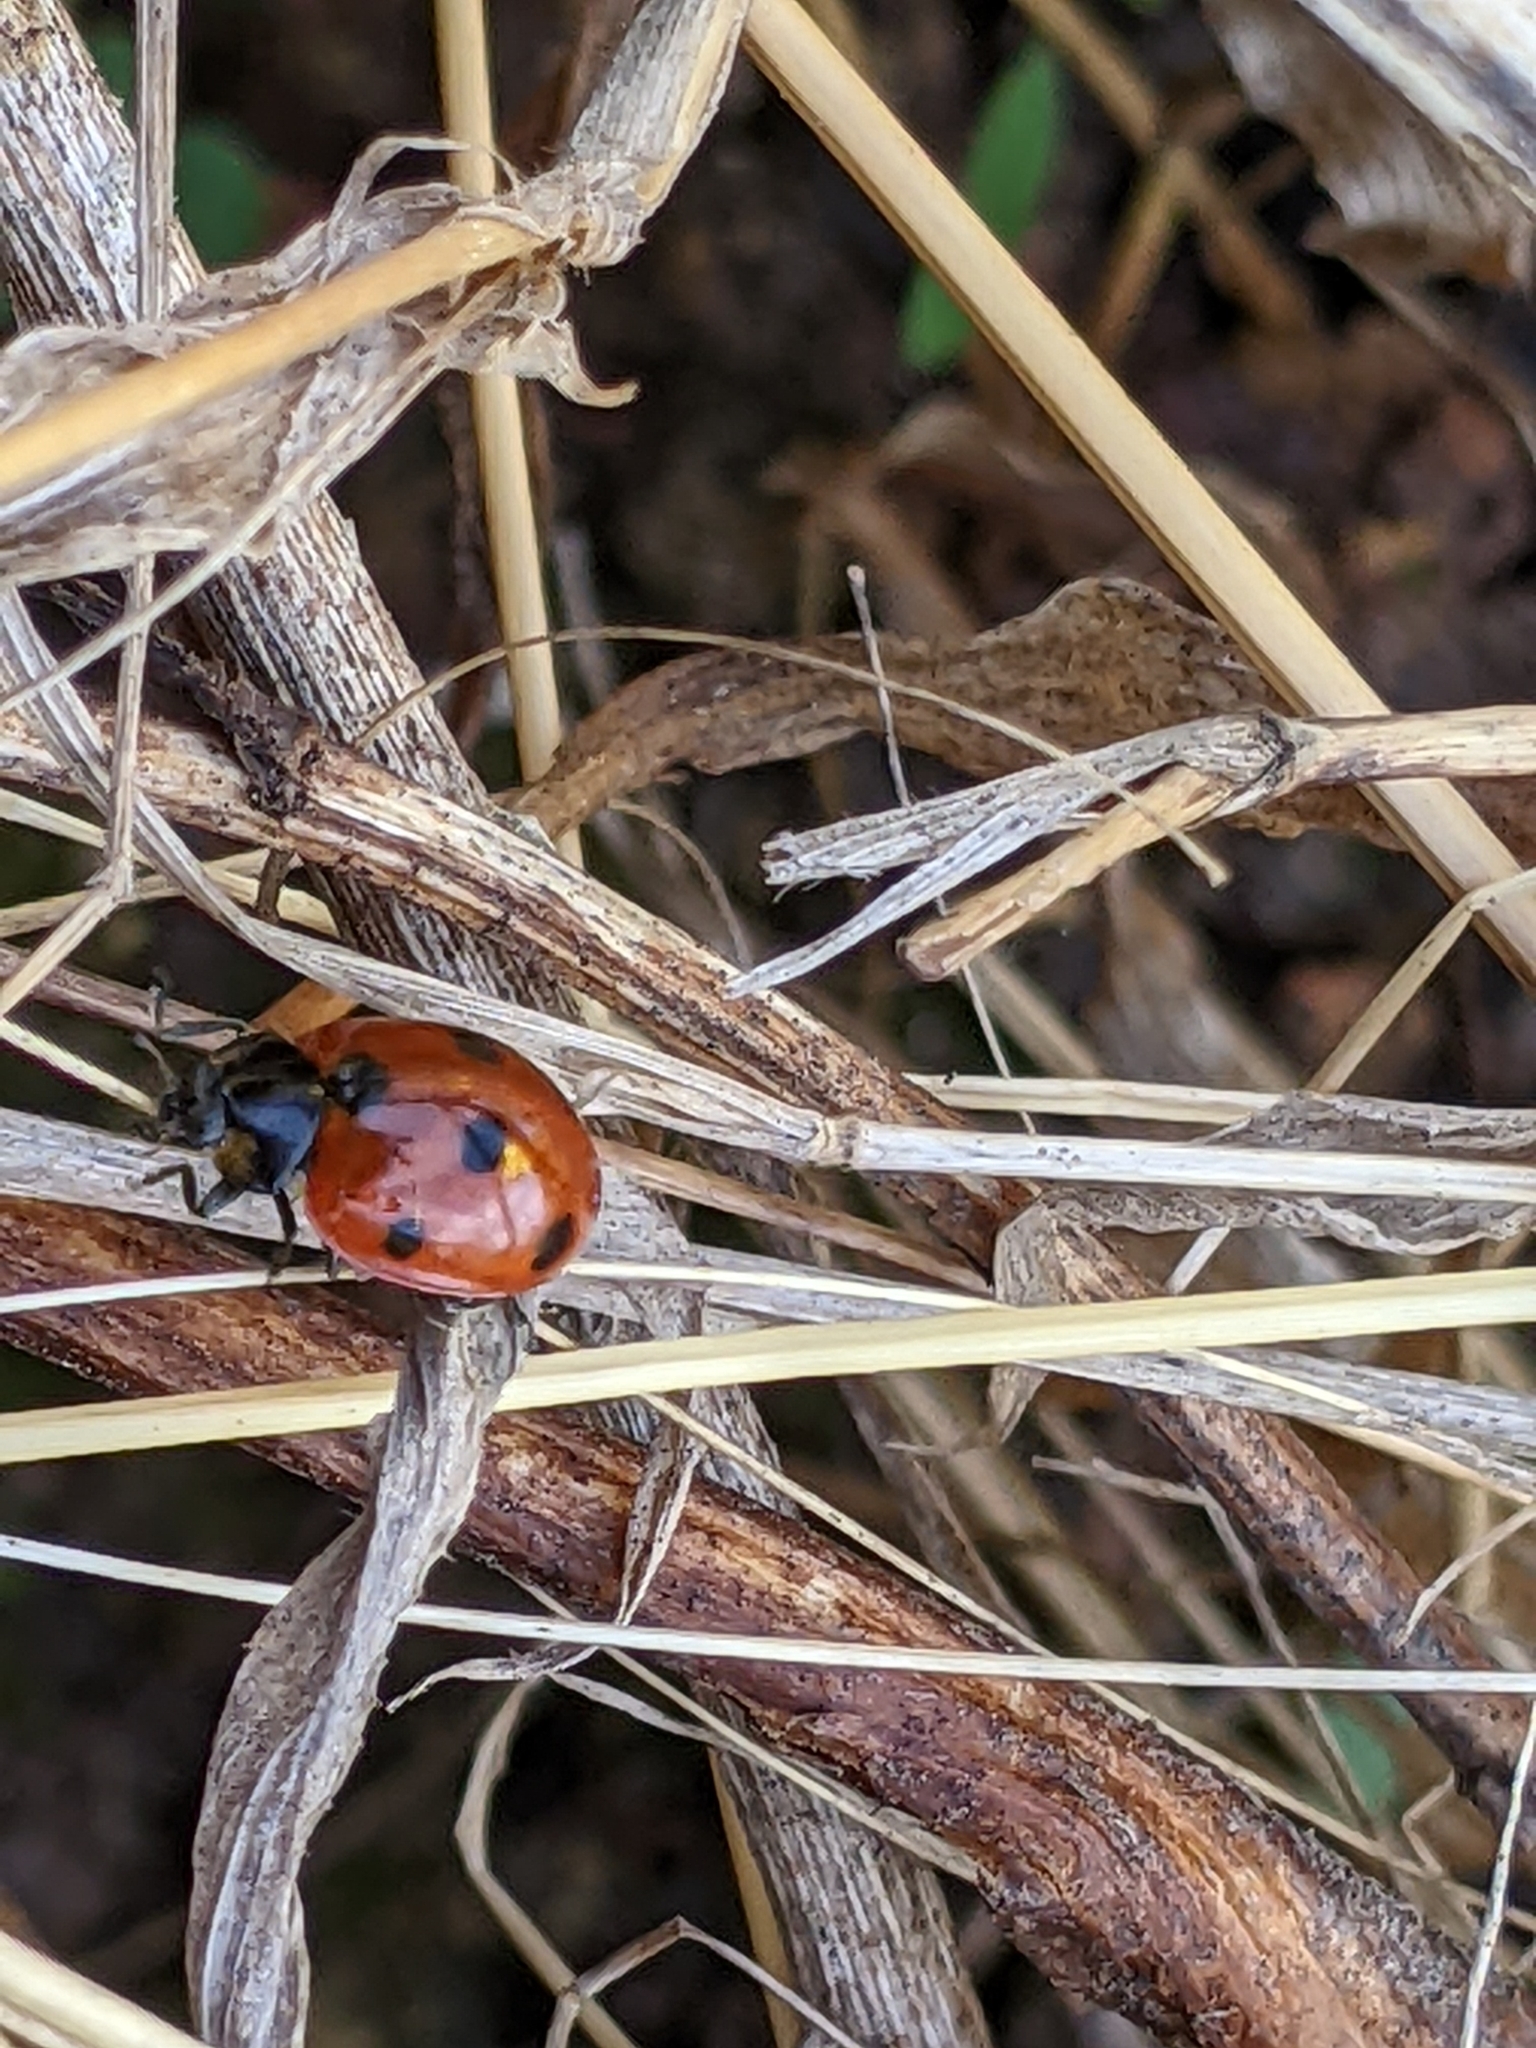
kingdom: Animalia
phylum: Arthropoda
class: Insecta
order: Coleoptera
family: Coccinellidae
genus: Coccinella
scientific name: Coccinella septempunctata
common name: Sevenspotted lady beetle
